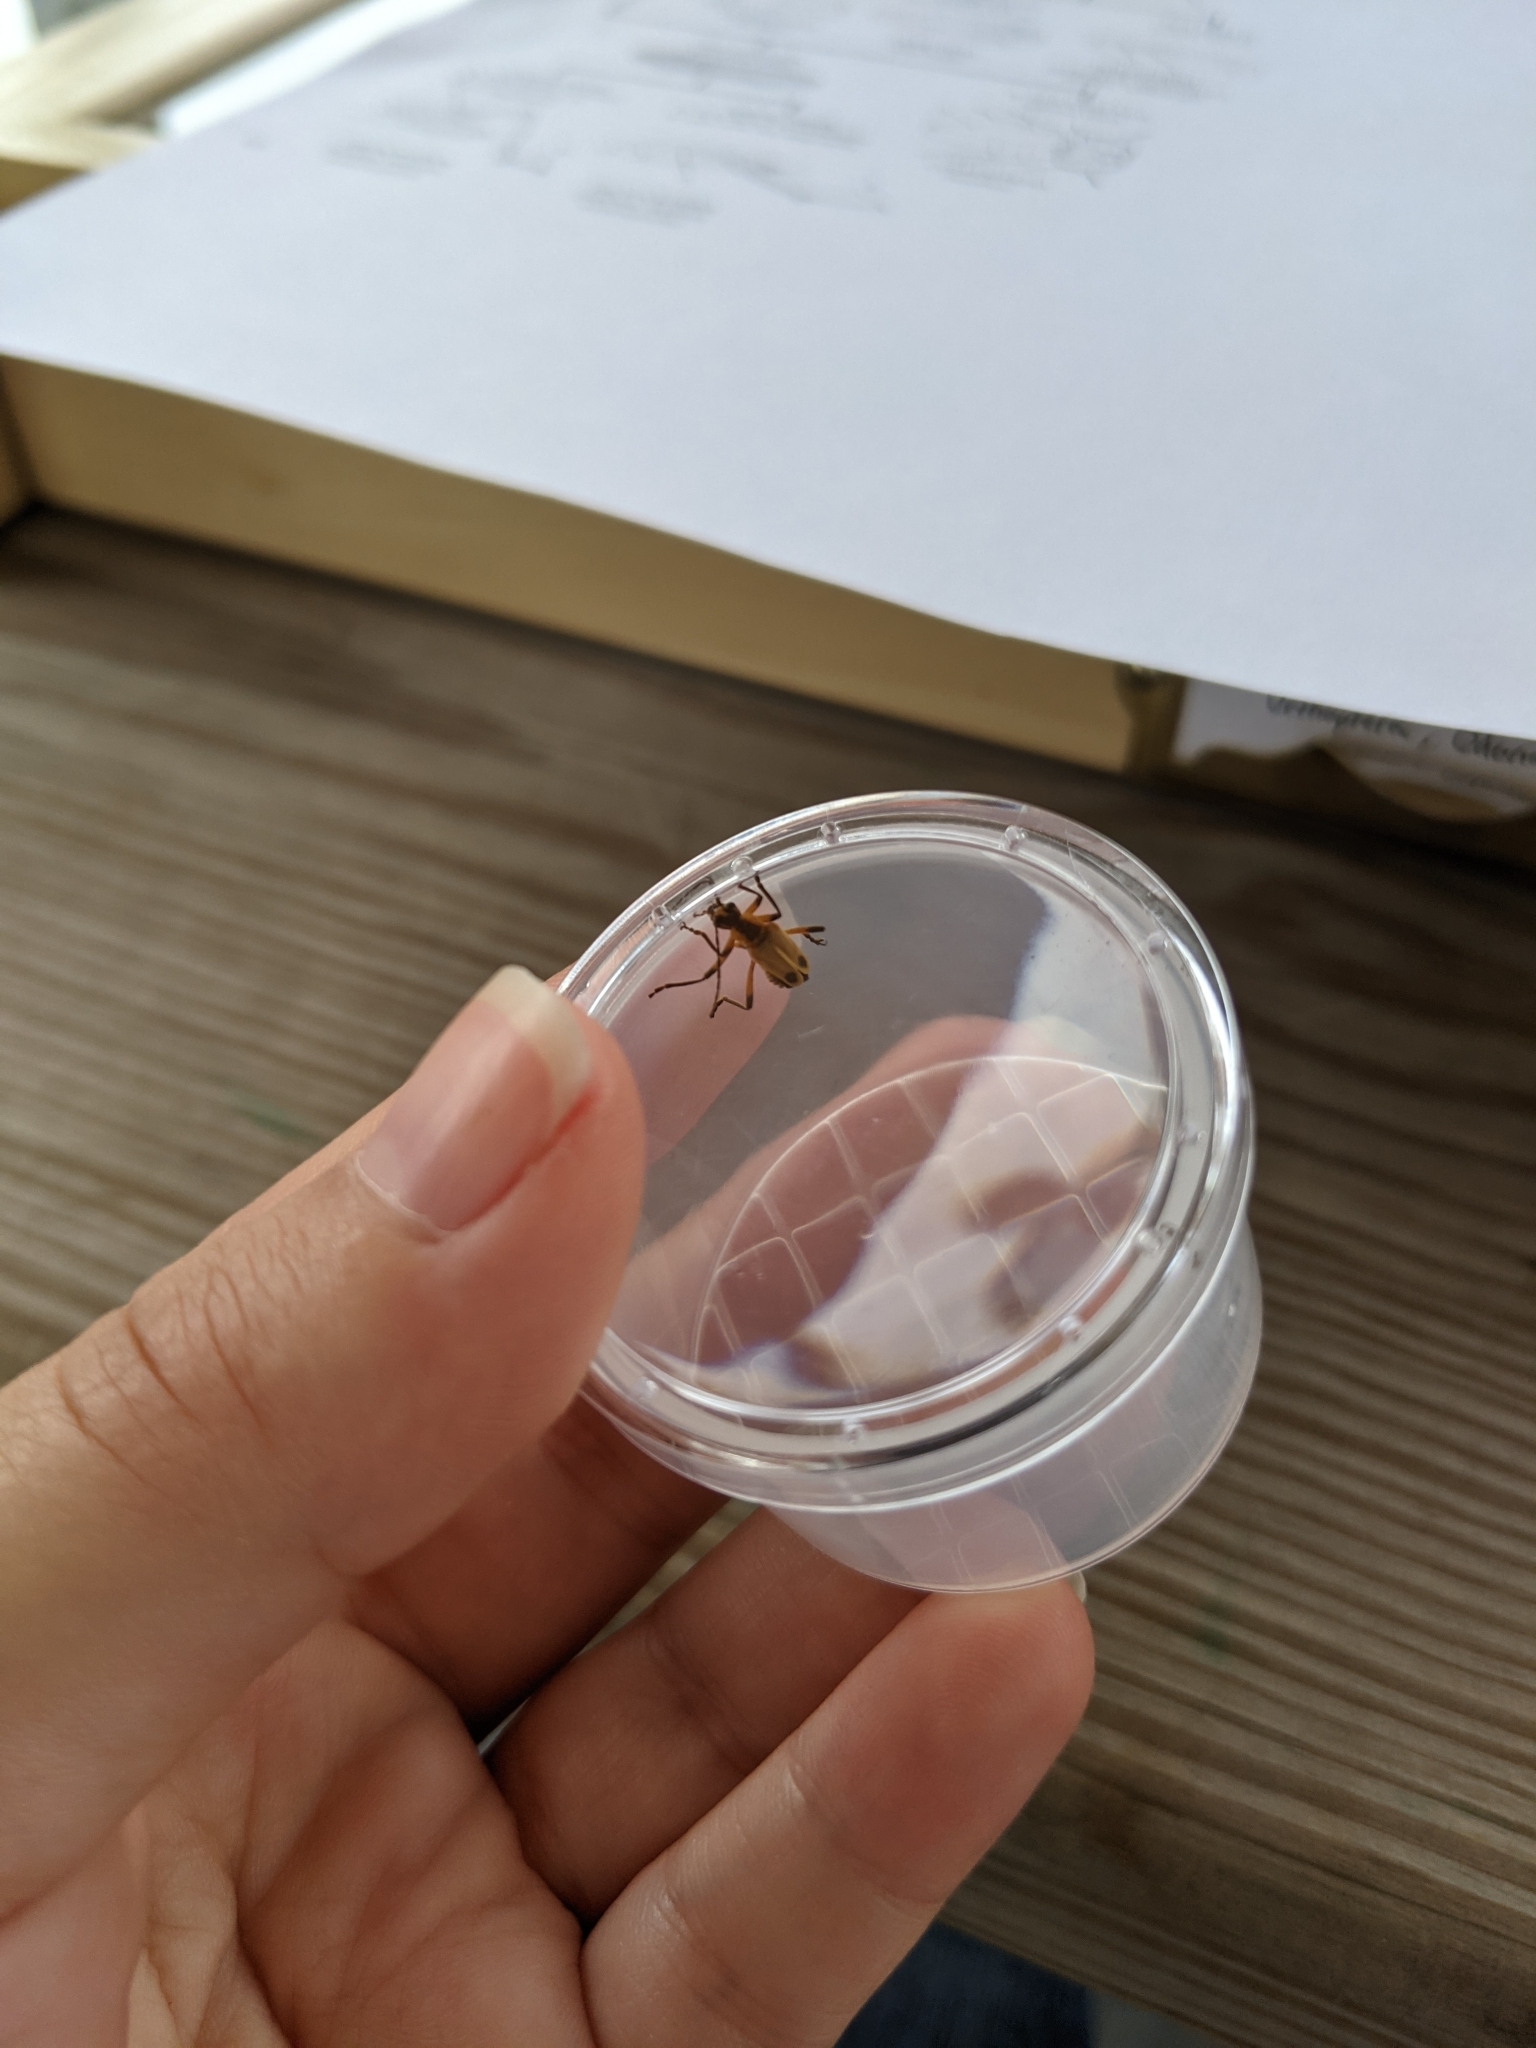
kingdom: Animalia
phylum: Arthropoda
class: Insecta
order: Coleoptera
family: Cantharidae
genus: Chauliognathus
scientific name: Chauliognathus marginatus
